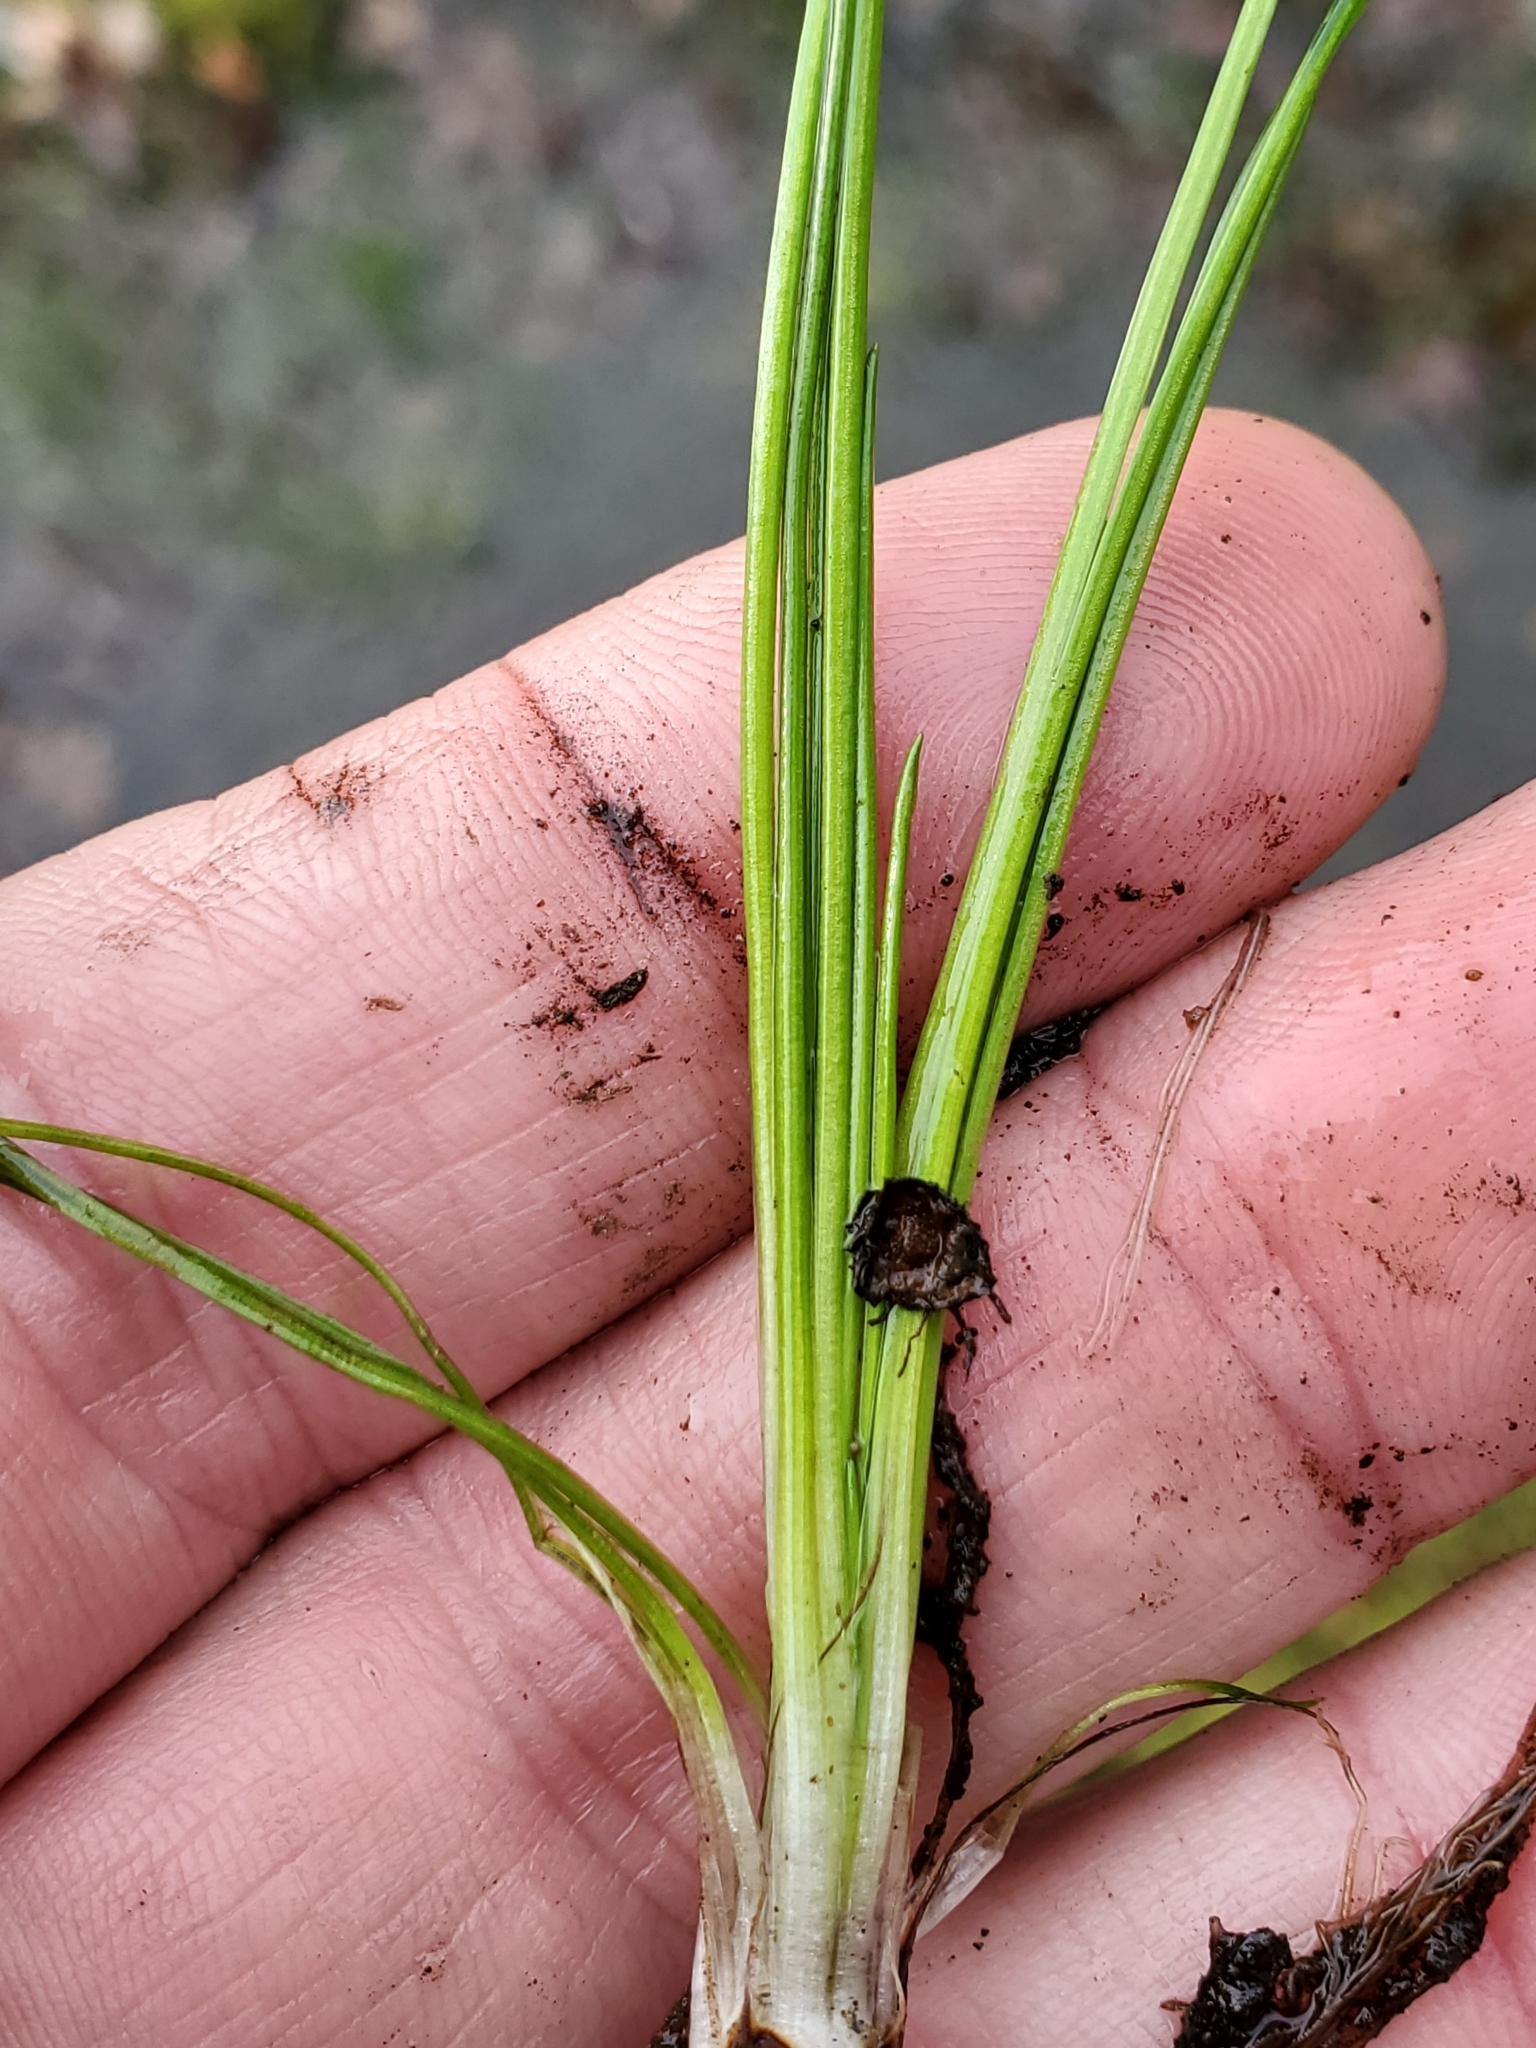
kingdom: Plantae
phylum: Tracheophyta
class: Lycopodiopsida
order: Isoetales
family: Isoetaceae
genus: Isoetes
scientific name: Isoetes nuttallii
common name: Nuttall's quillwort
